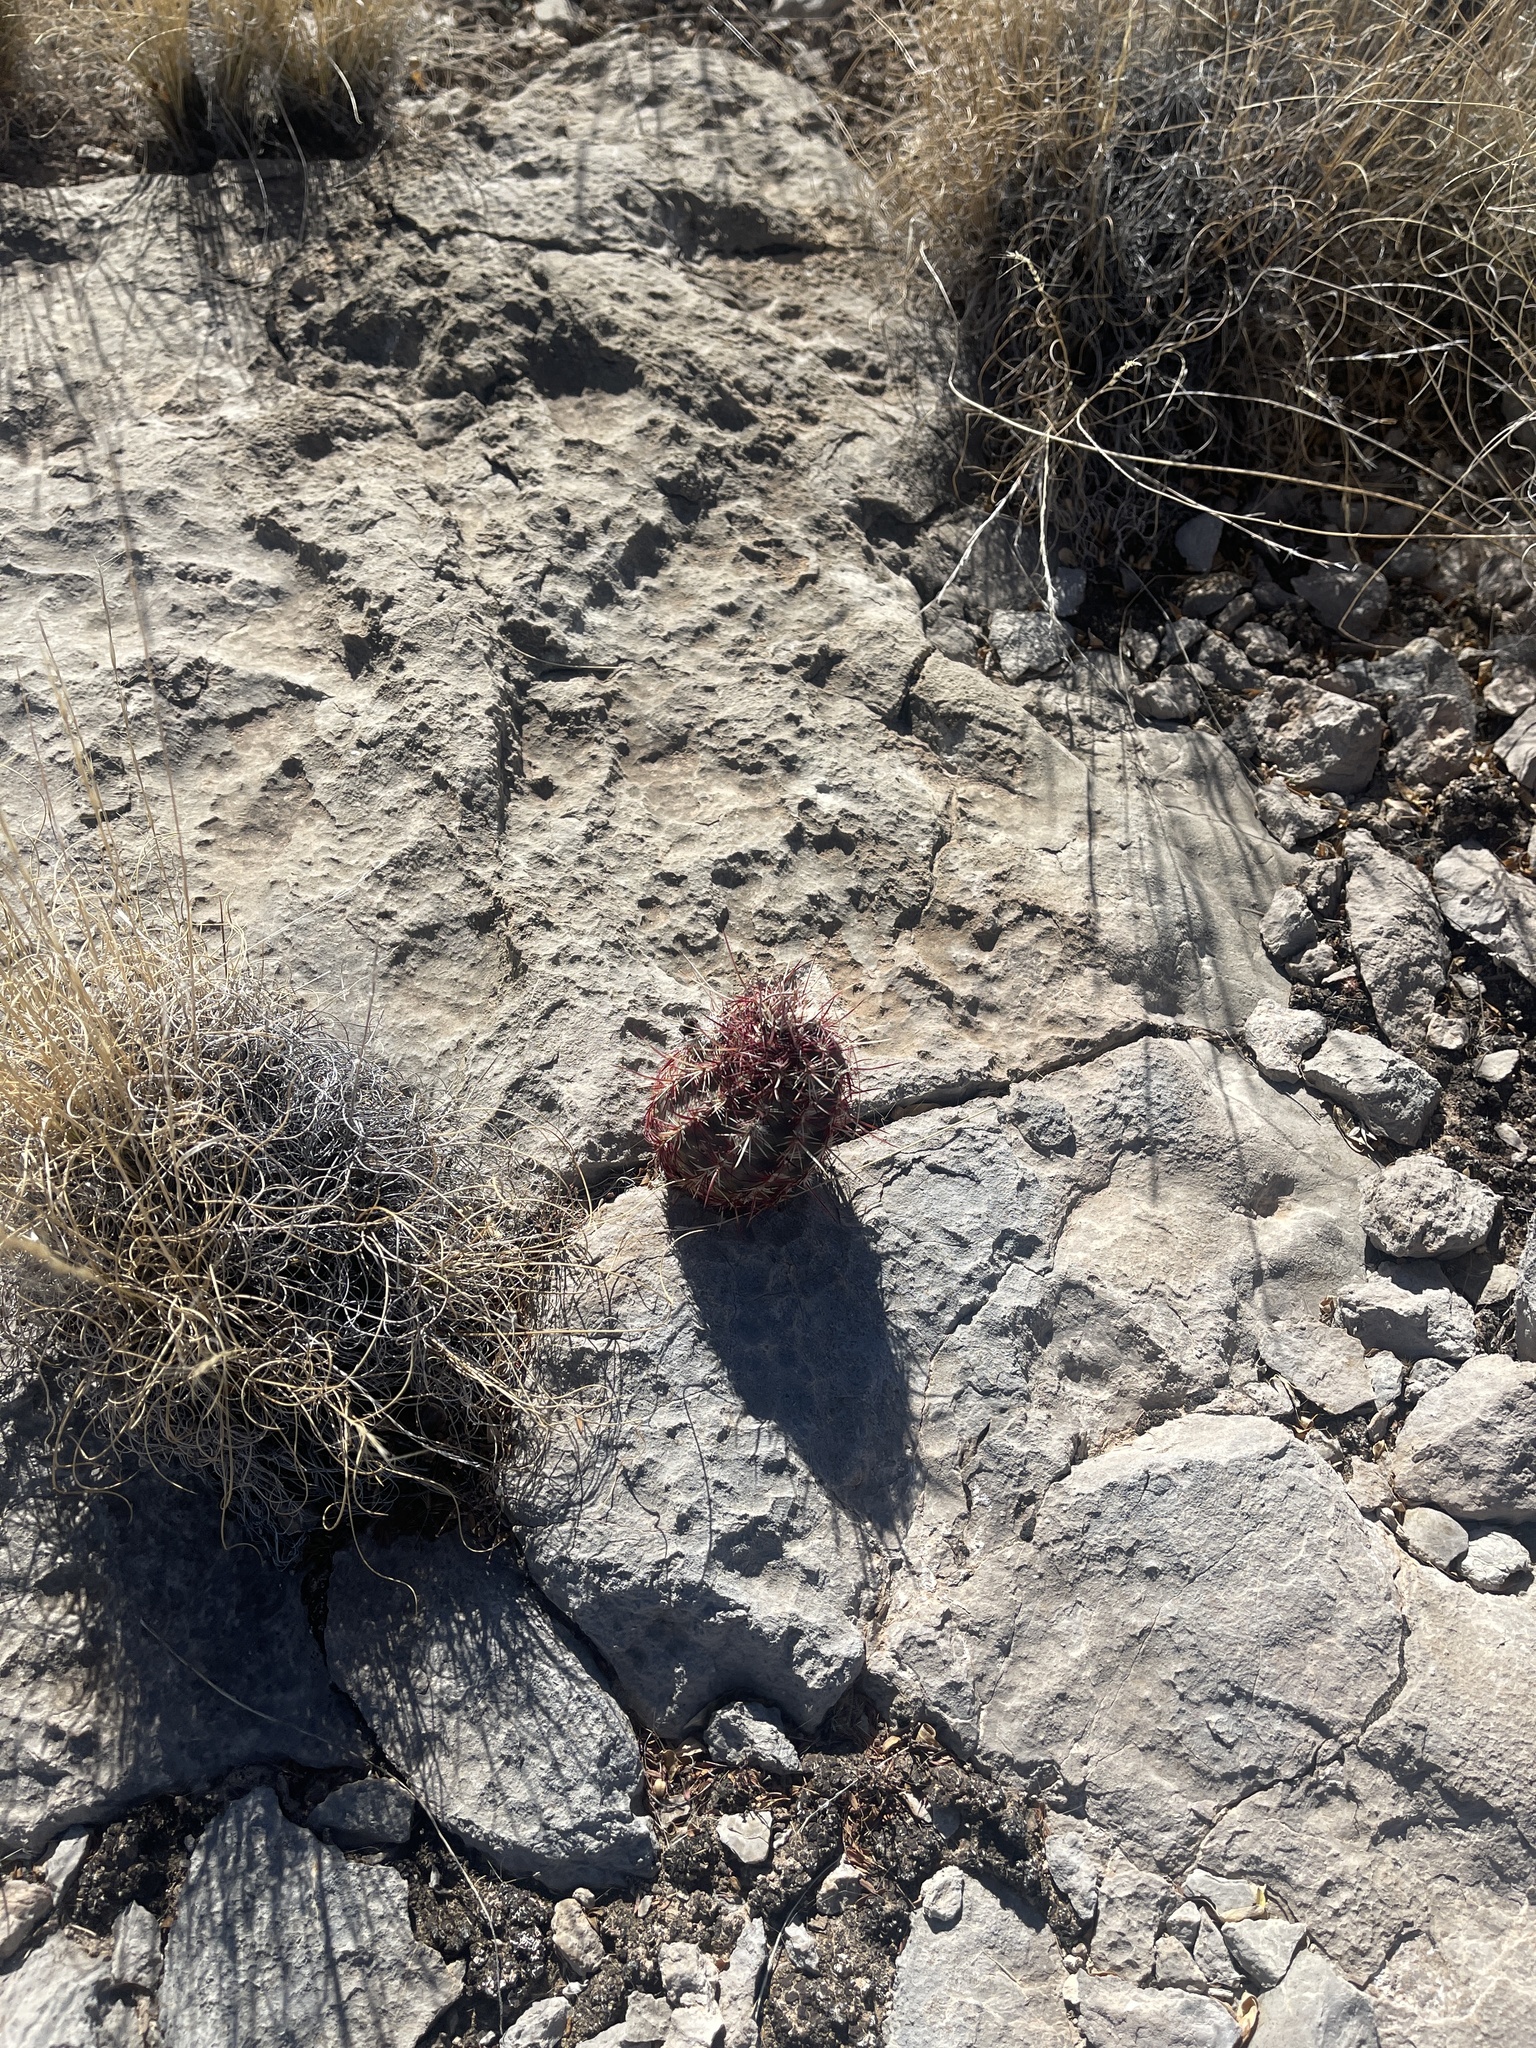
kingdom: Plantae
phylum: Tracheophyta
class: Magnoliopsida
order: Caryophyllales
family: Cactaceae
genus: Echinocereus
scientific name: Echinocereus viridiflorus
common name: Nylon hedgehog cactus
